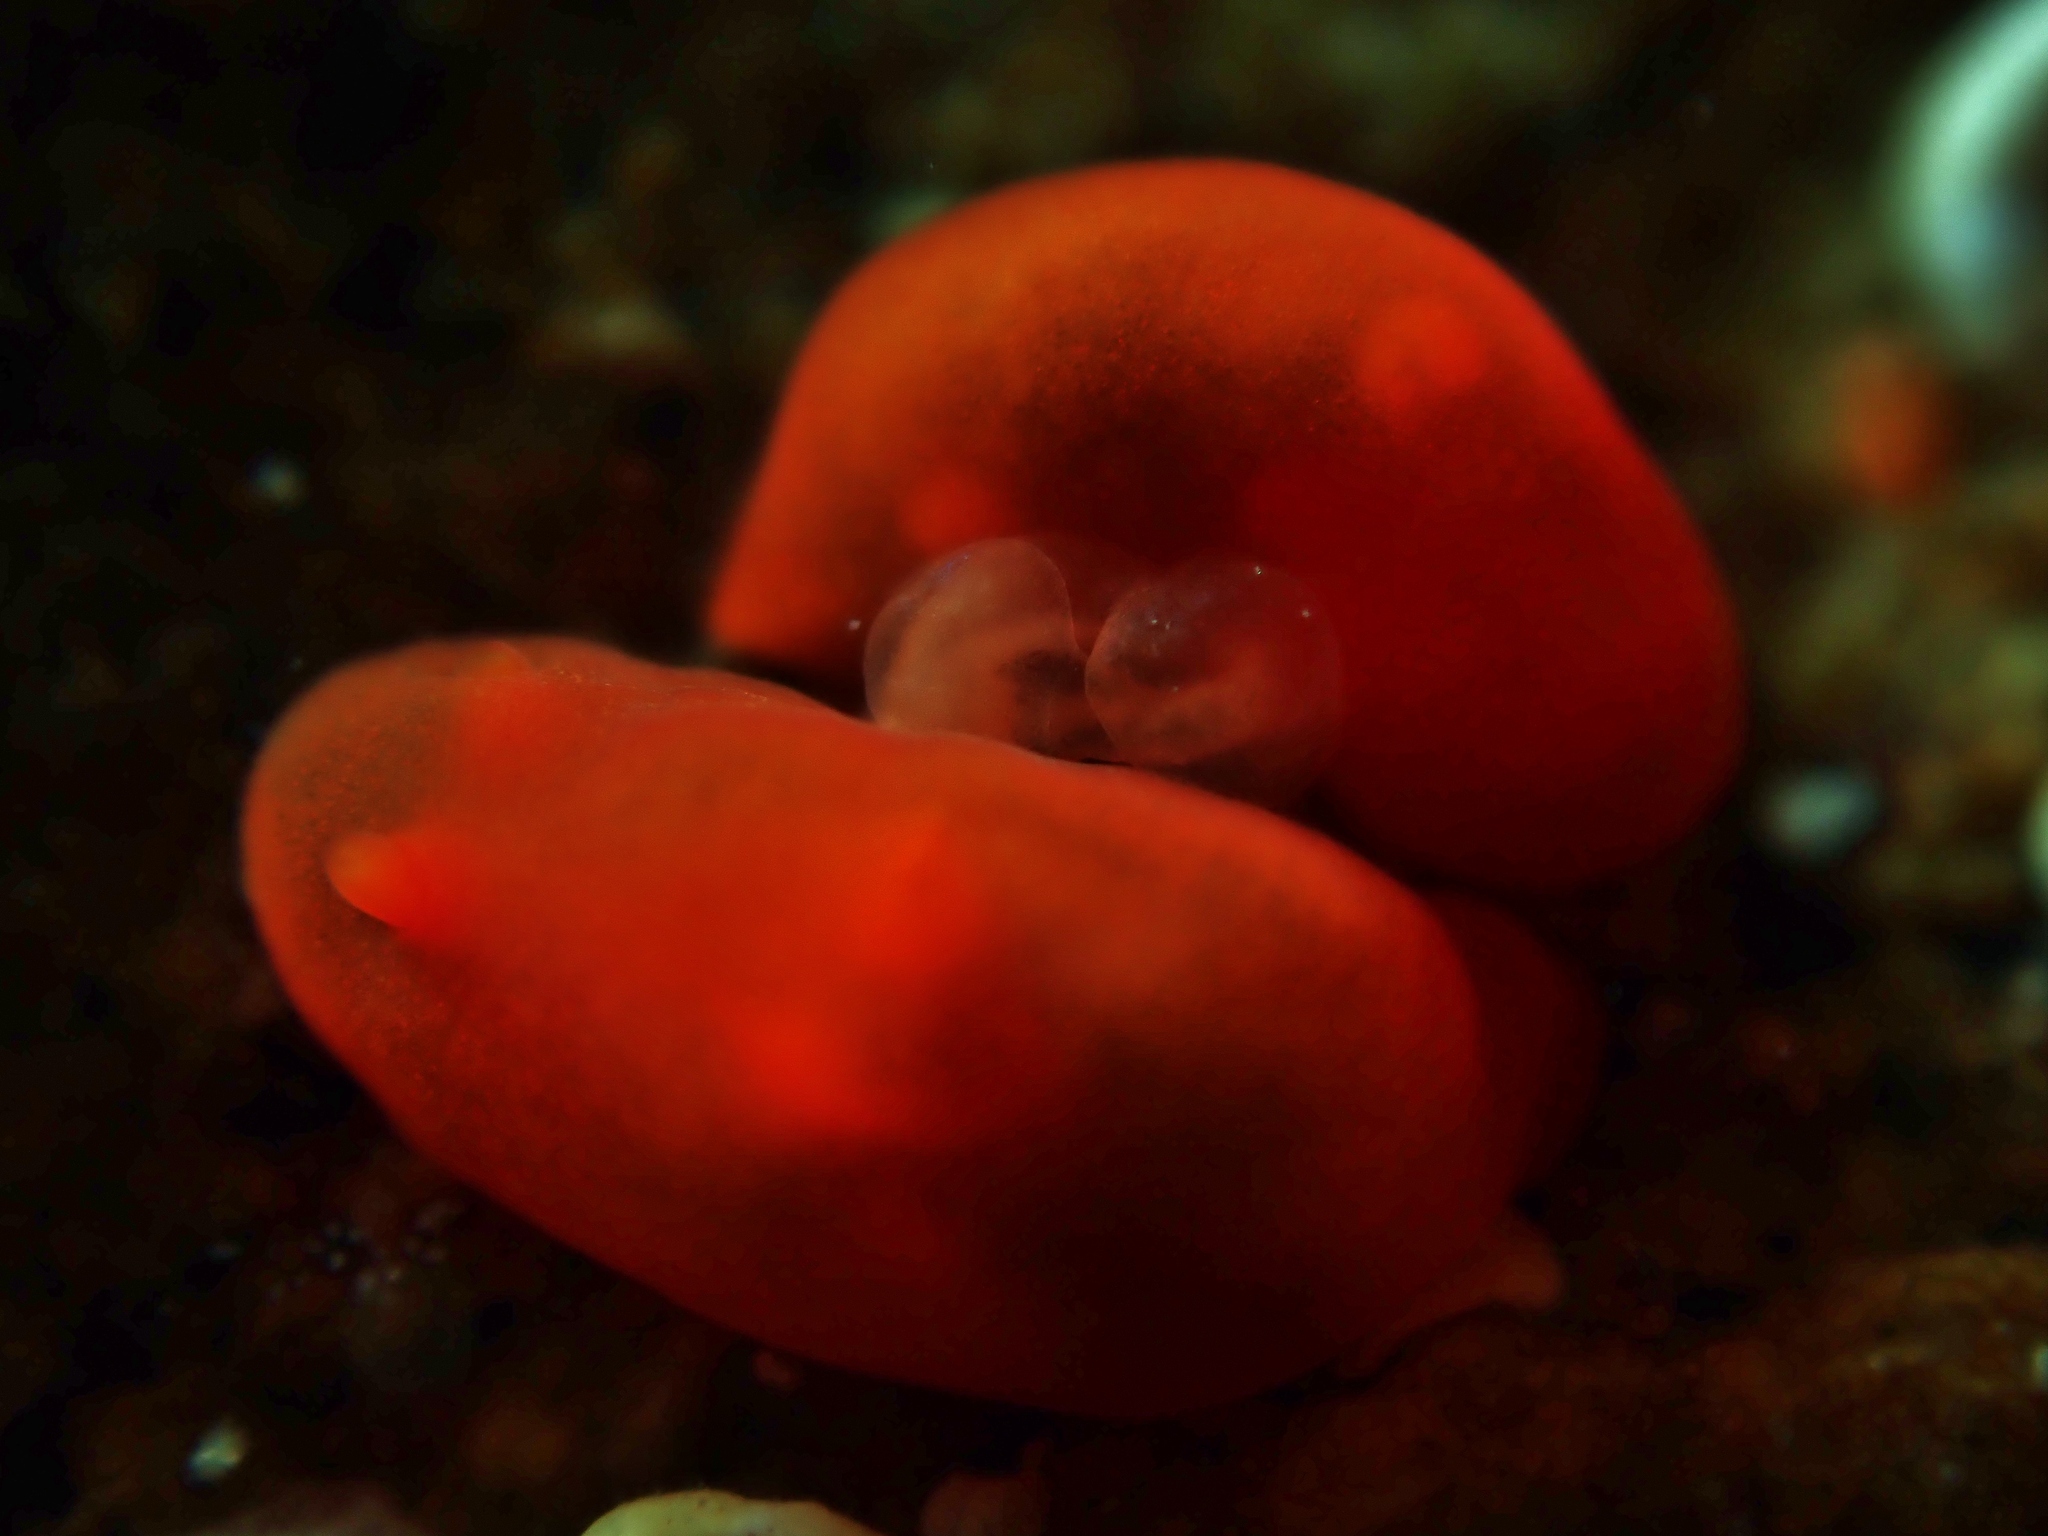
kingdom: Animalia
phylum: Mollusca
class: Gastropoda
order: Nudibranchia
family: Okadaiidae
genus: Vayssierea
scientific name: Vayssierea cinnabarea
